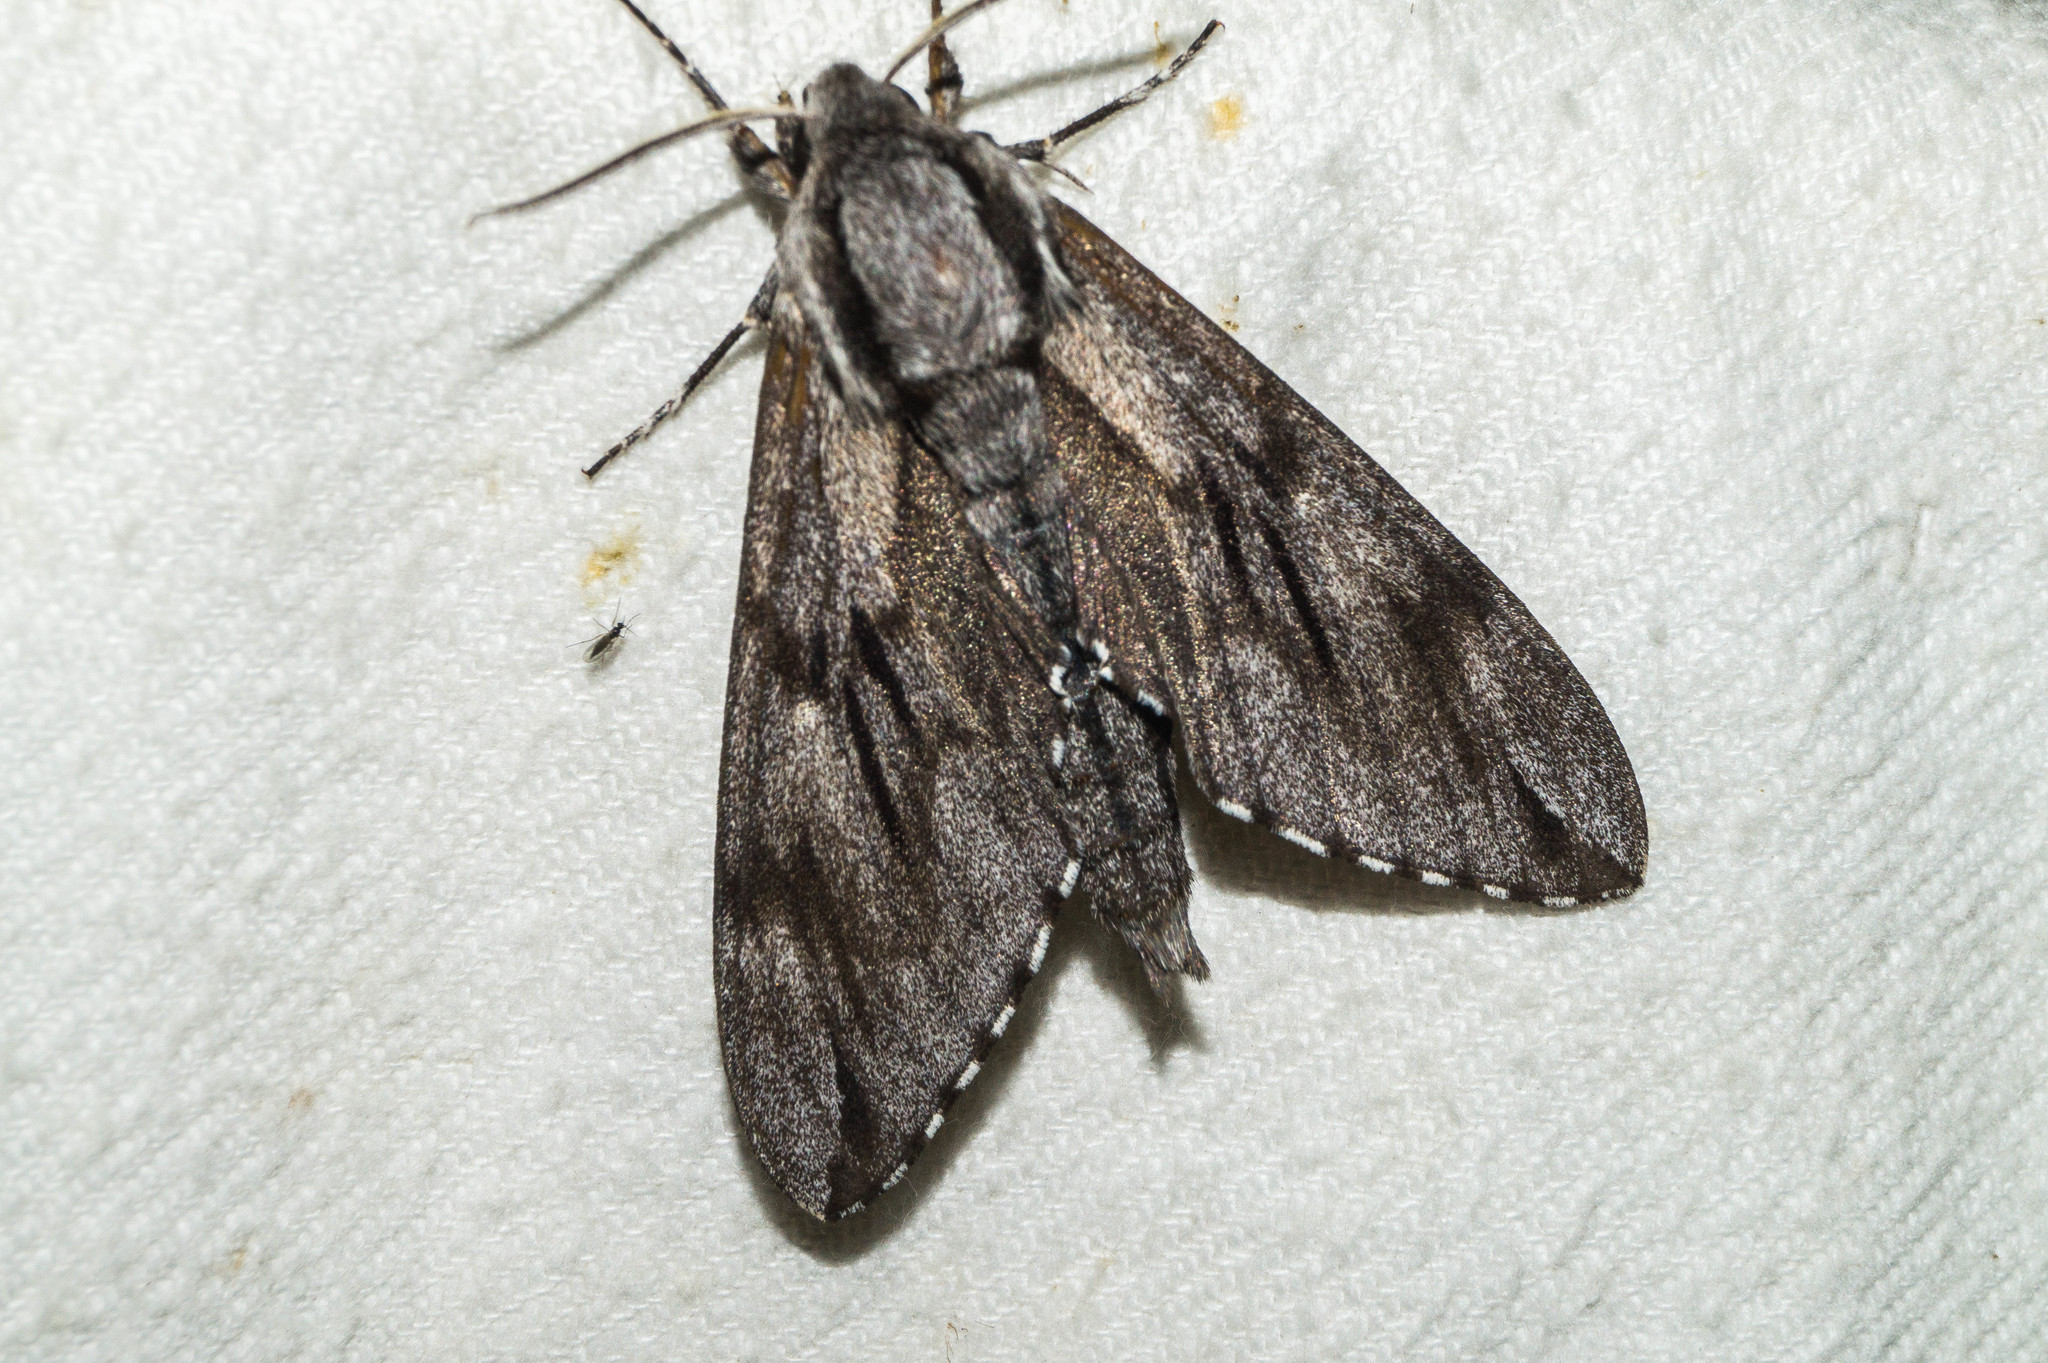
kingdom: Animalia
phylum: Arthropoda
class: Insecta
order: Lepidoptera
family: Sphingidae
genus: Sphinx
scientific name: Sphinx pinastri
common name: Pine hawk-moth
